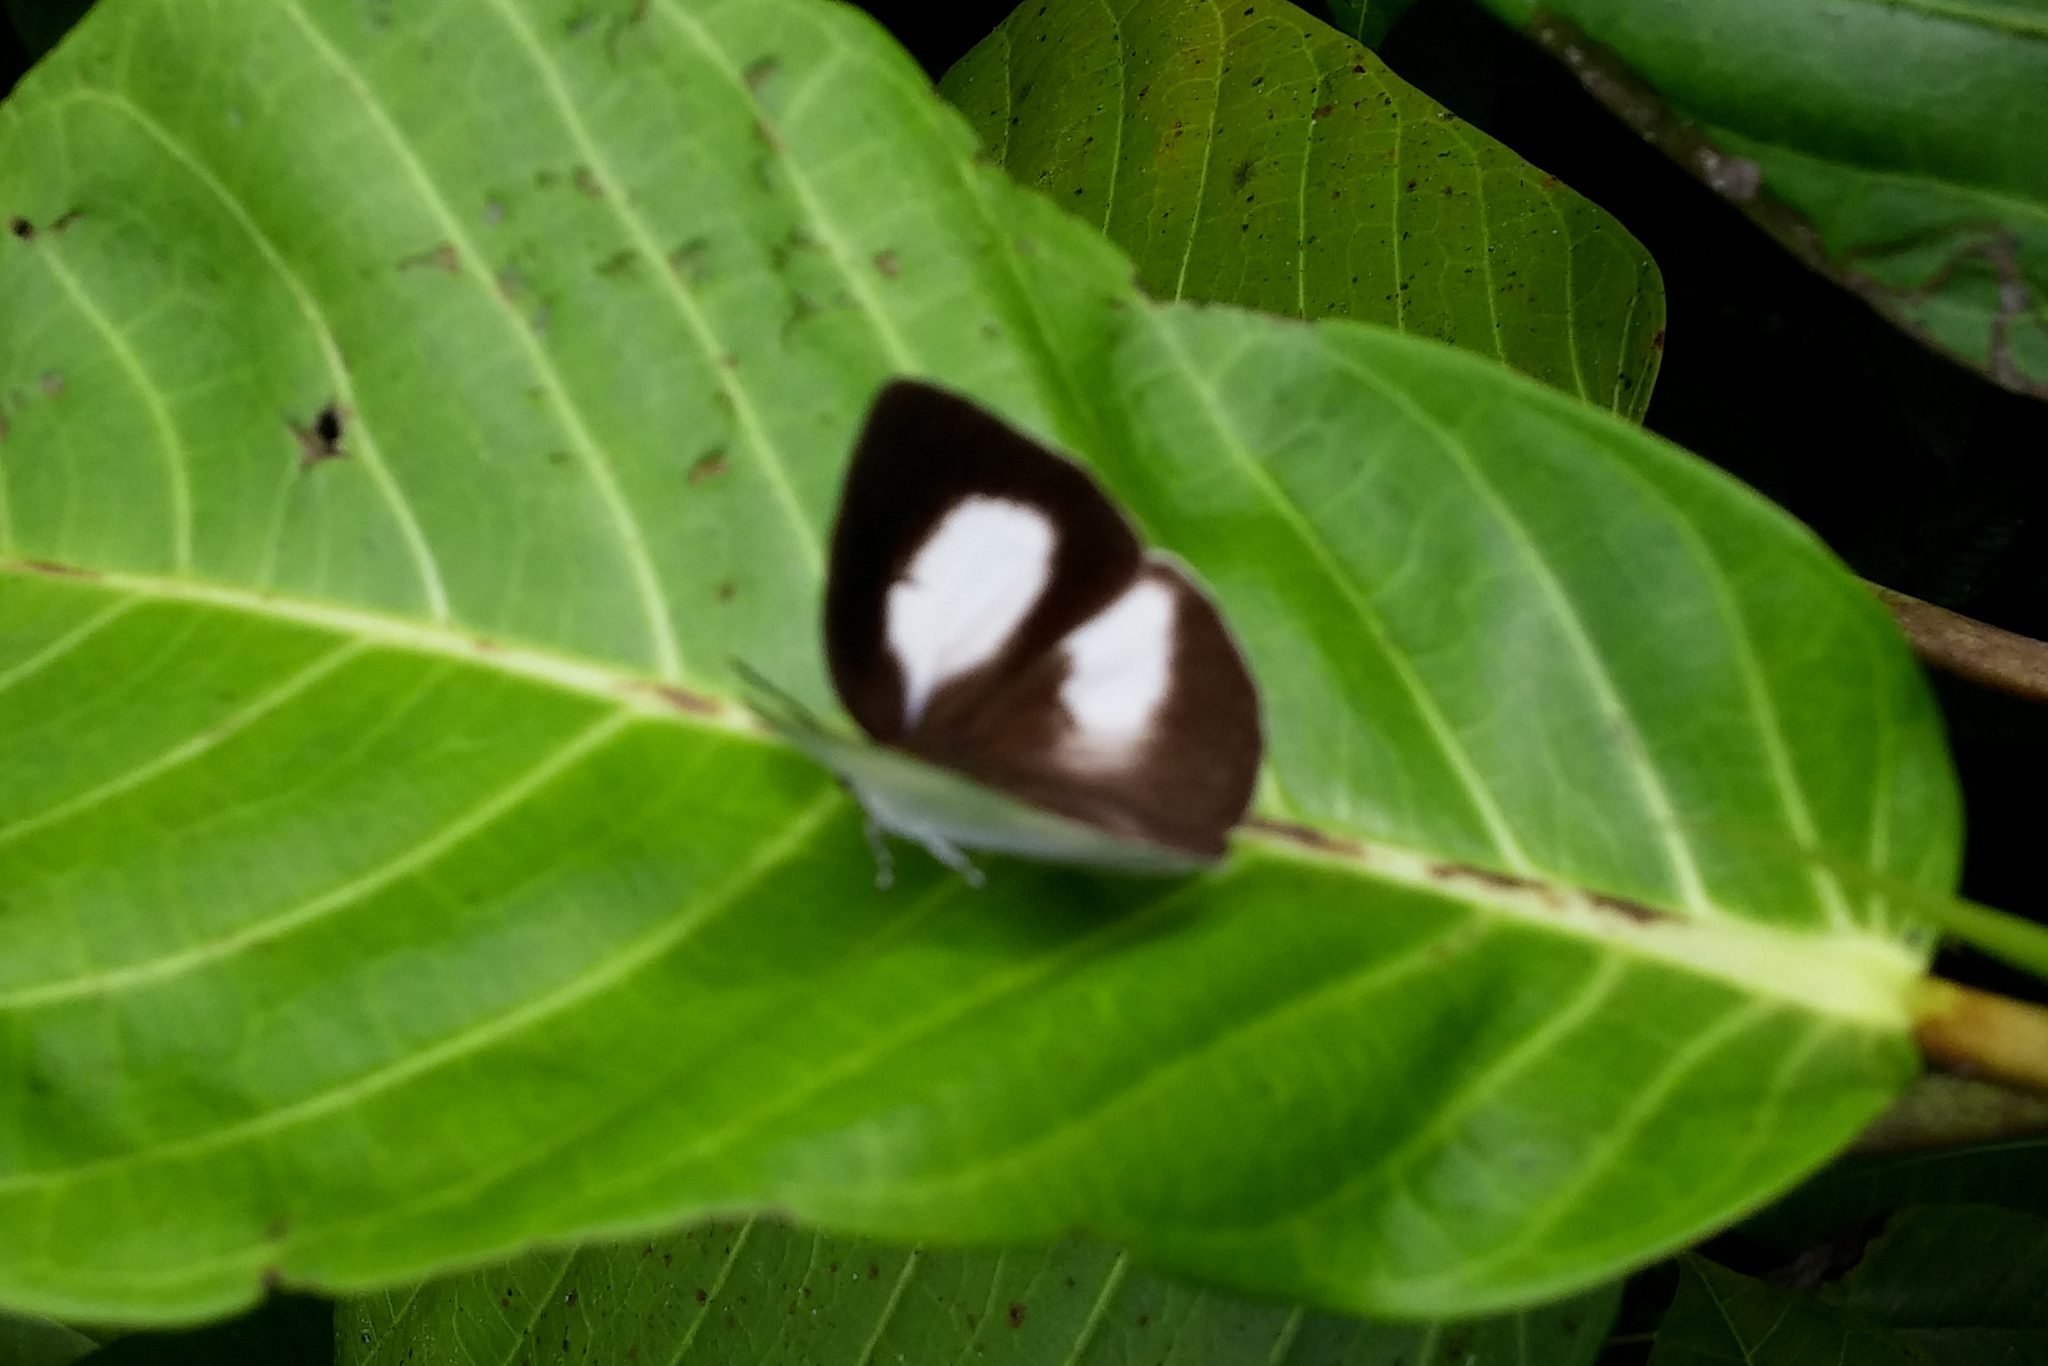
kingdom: Animalia
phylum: Arthropoda
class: Insecta
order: Lepidoptera
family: Lycaenidae
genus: Curetis
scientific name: Curetis barsine
